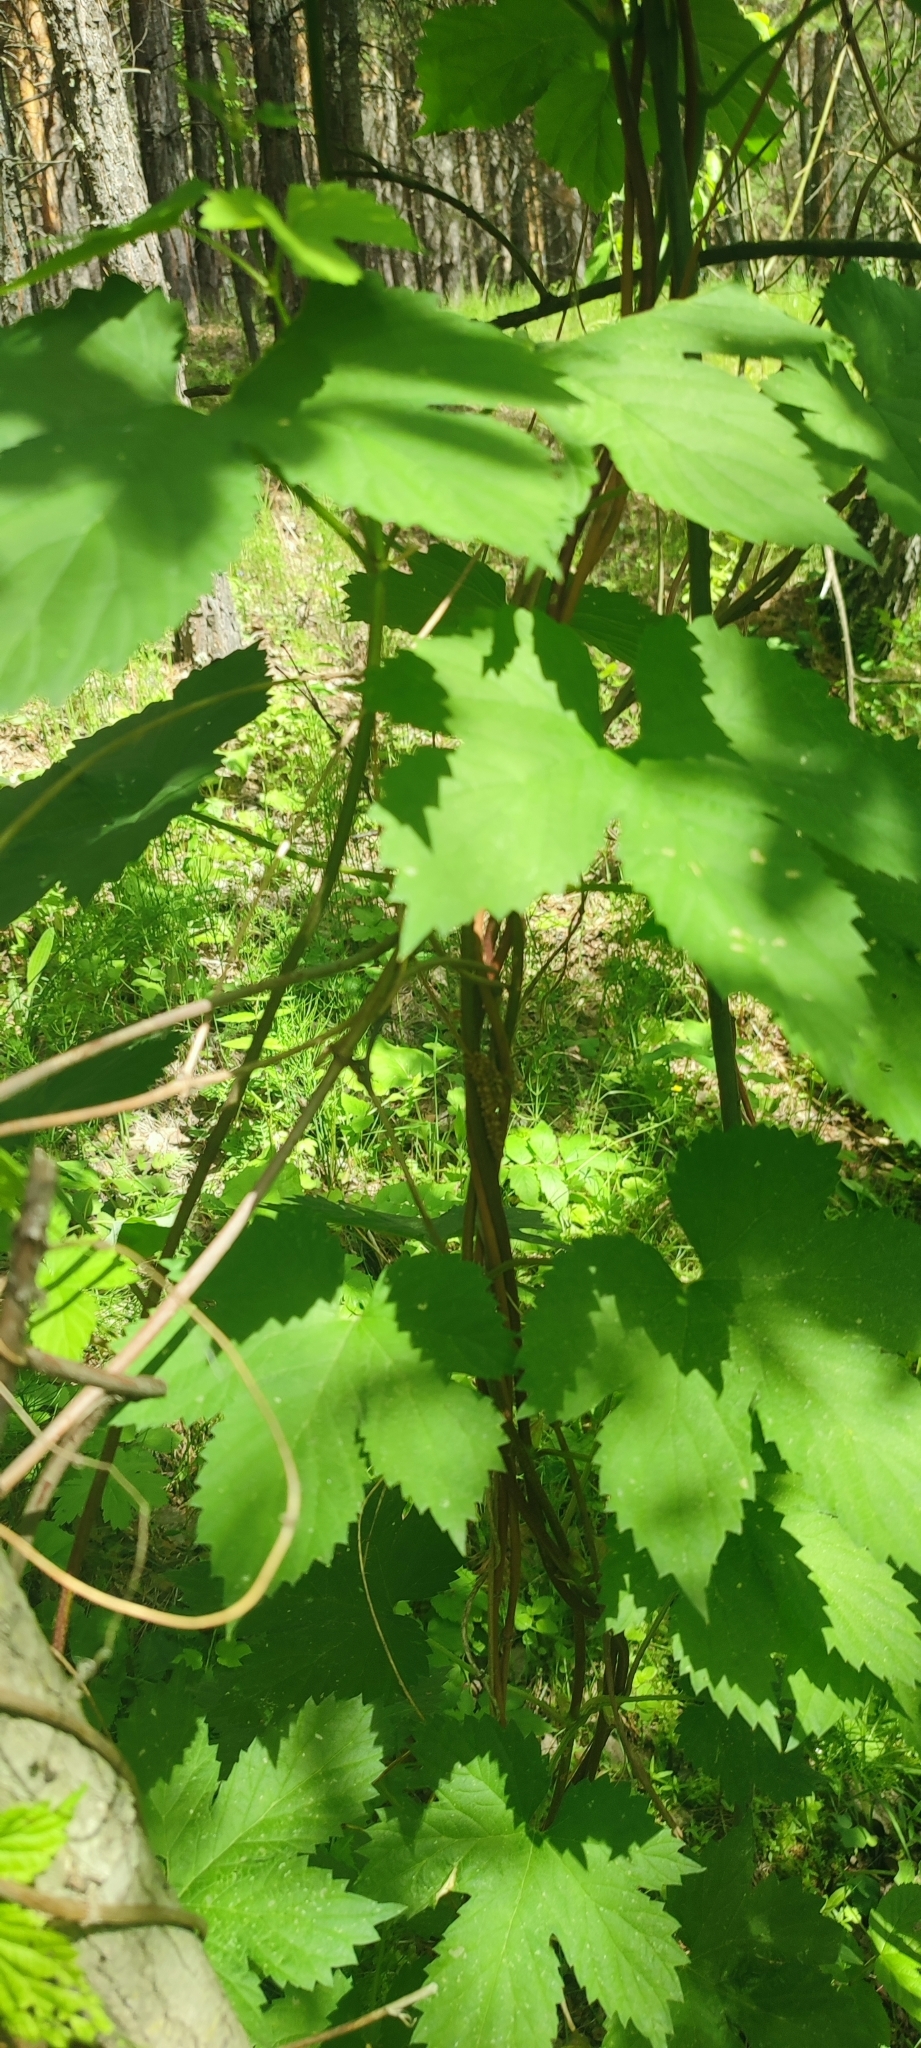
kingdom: Plantae
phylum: Tracheophyta
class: Magnoliopsida
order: Rosales
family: Cannabaceae
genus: Humulus
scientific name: Humulus lupulus
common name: Hop
